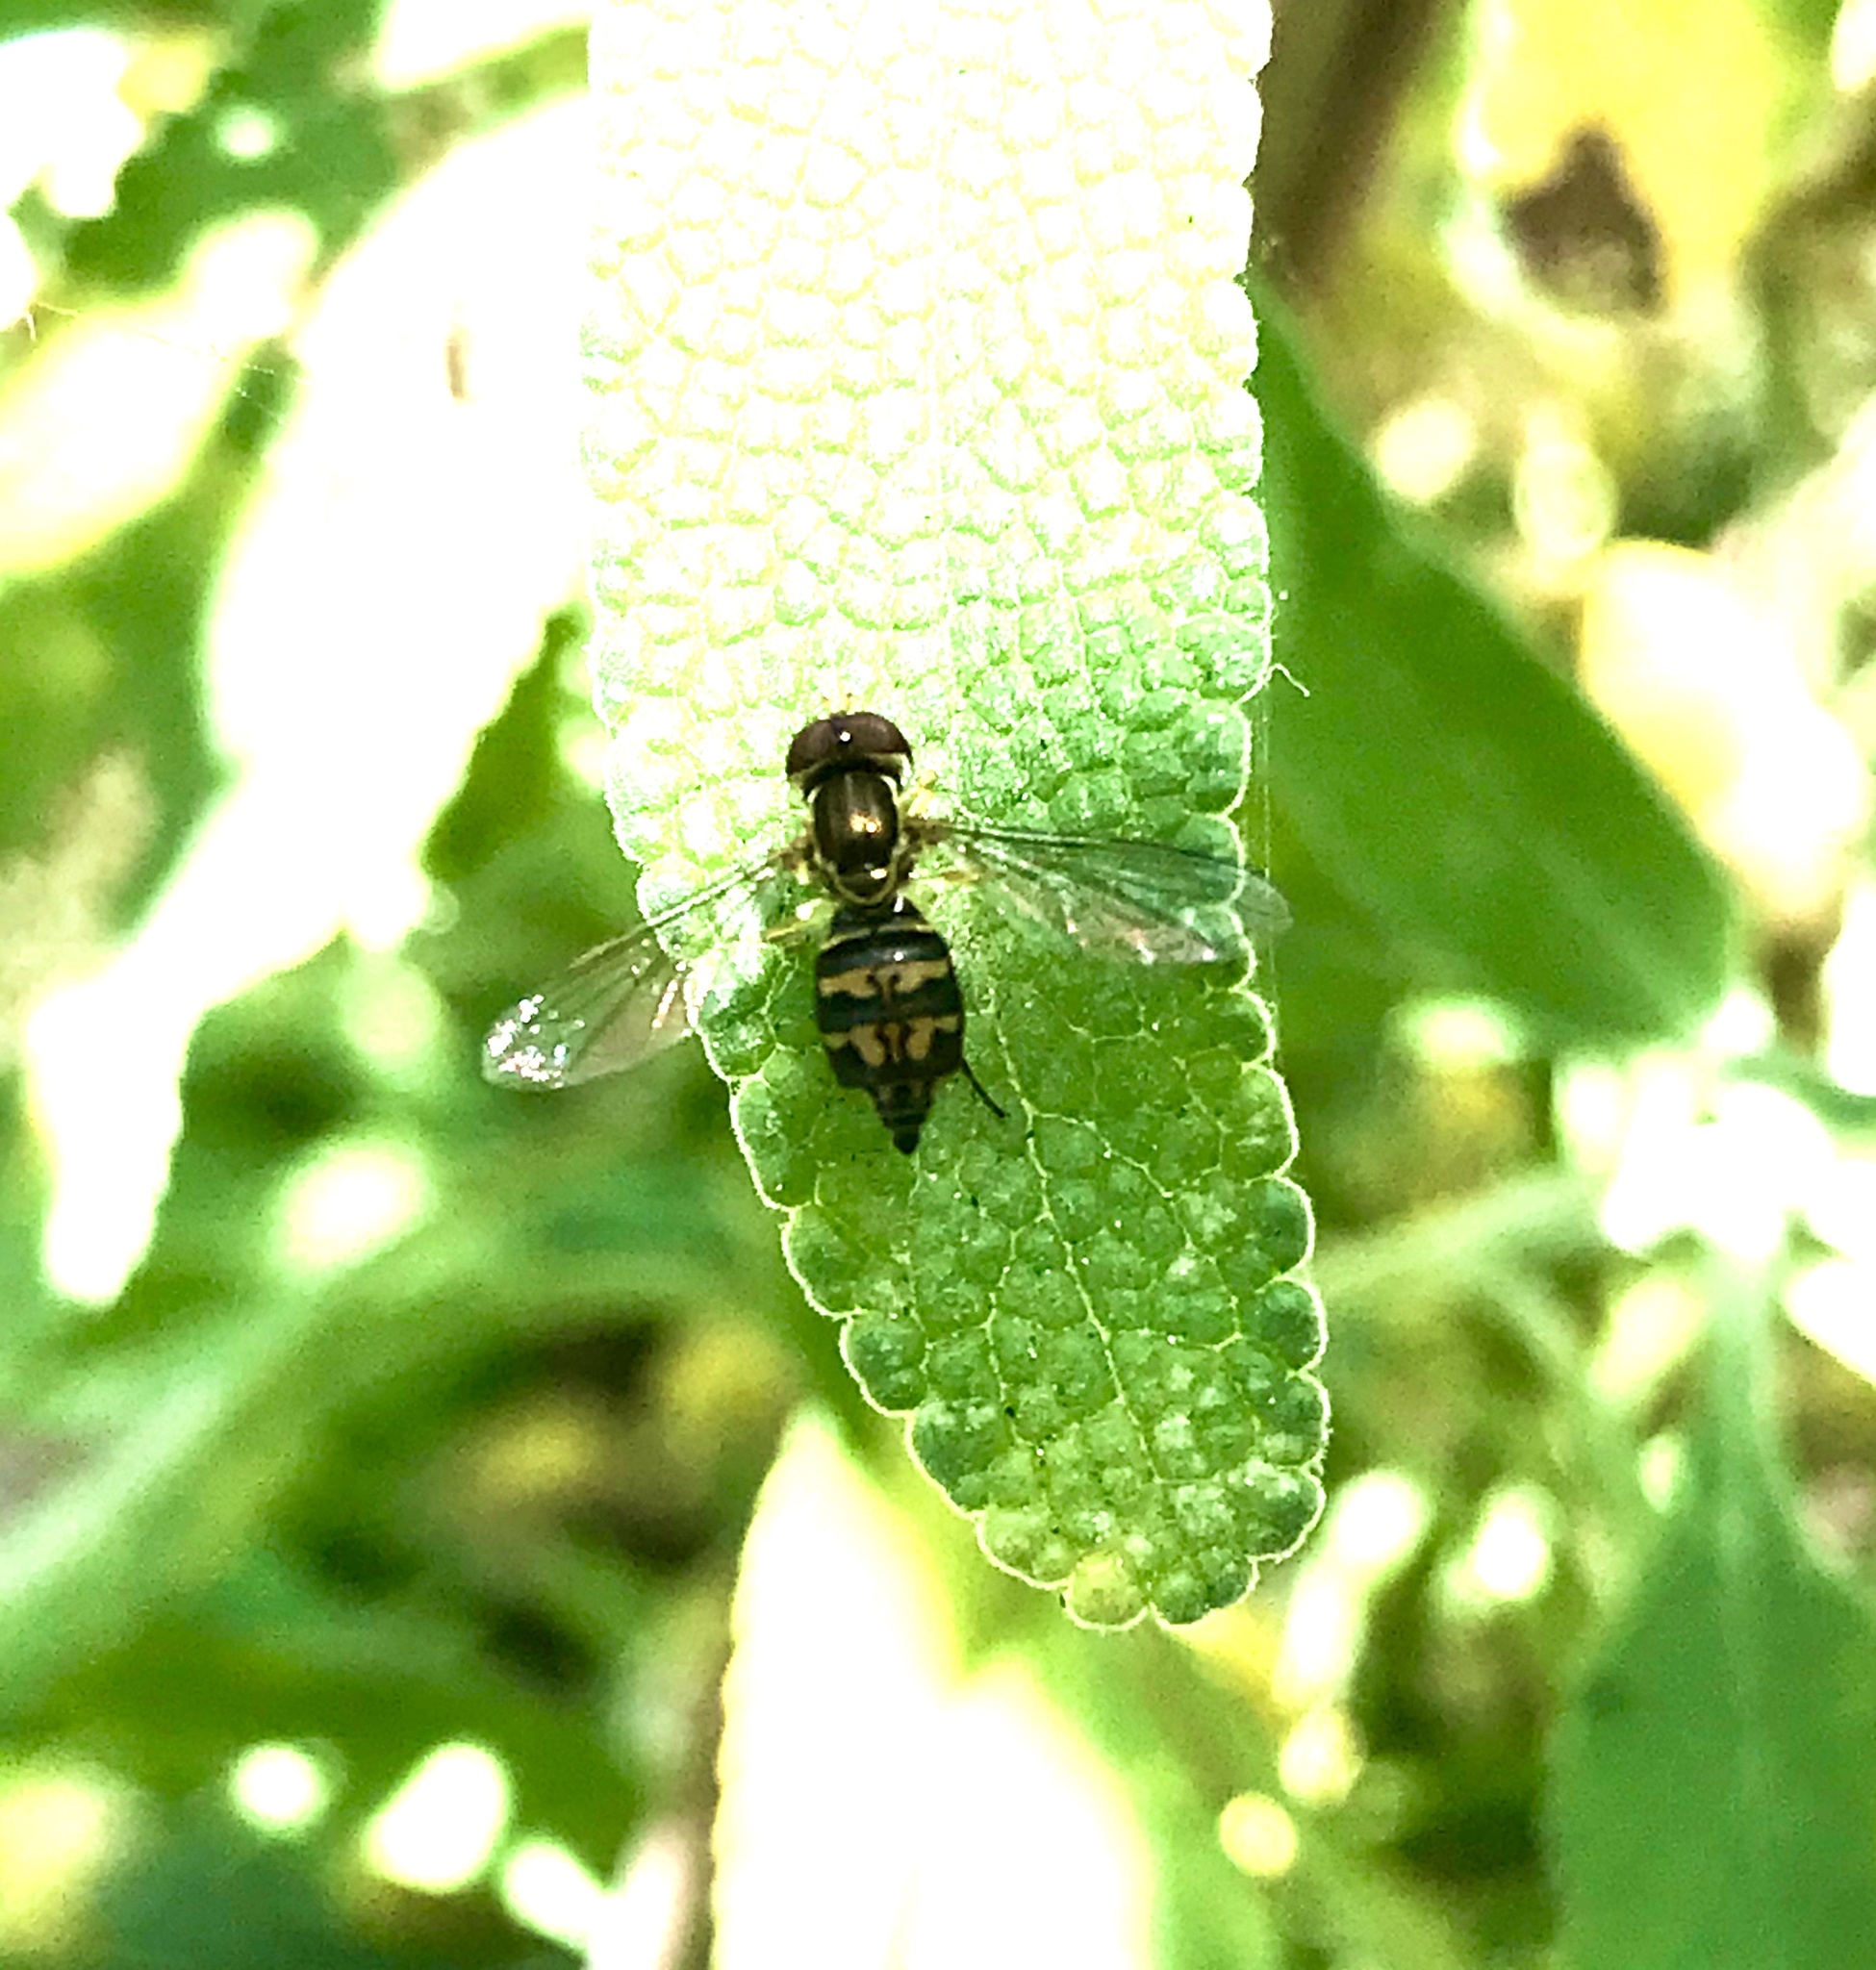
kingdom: Animalia
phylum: Arthropoda
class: Insecta
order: Diptera
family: Syrphidae
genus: Toxomerus
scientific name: Toxomerus occidentalis
